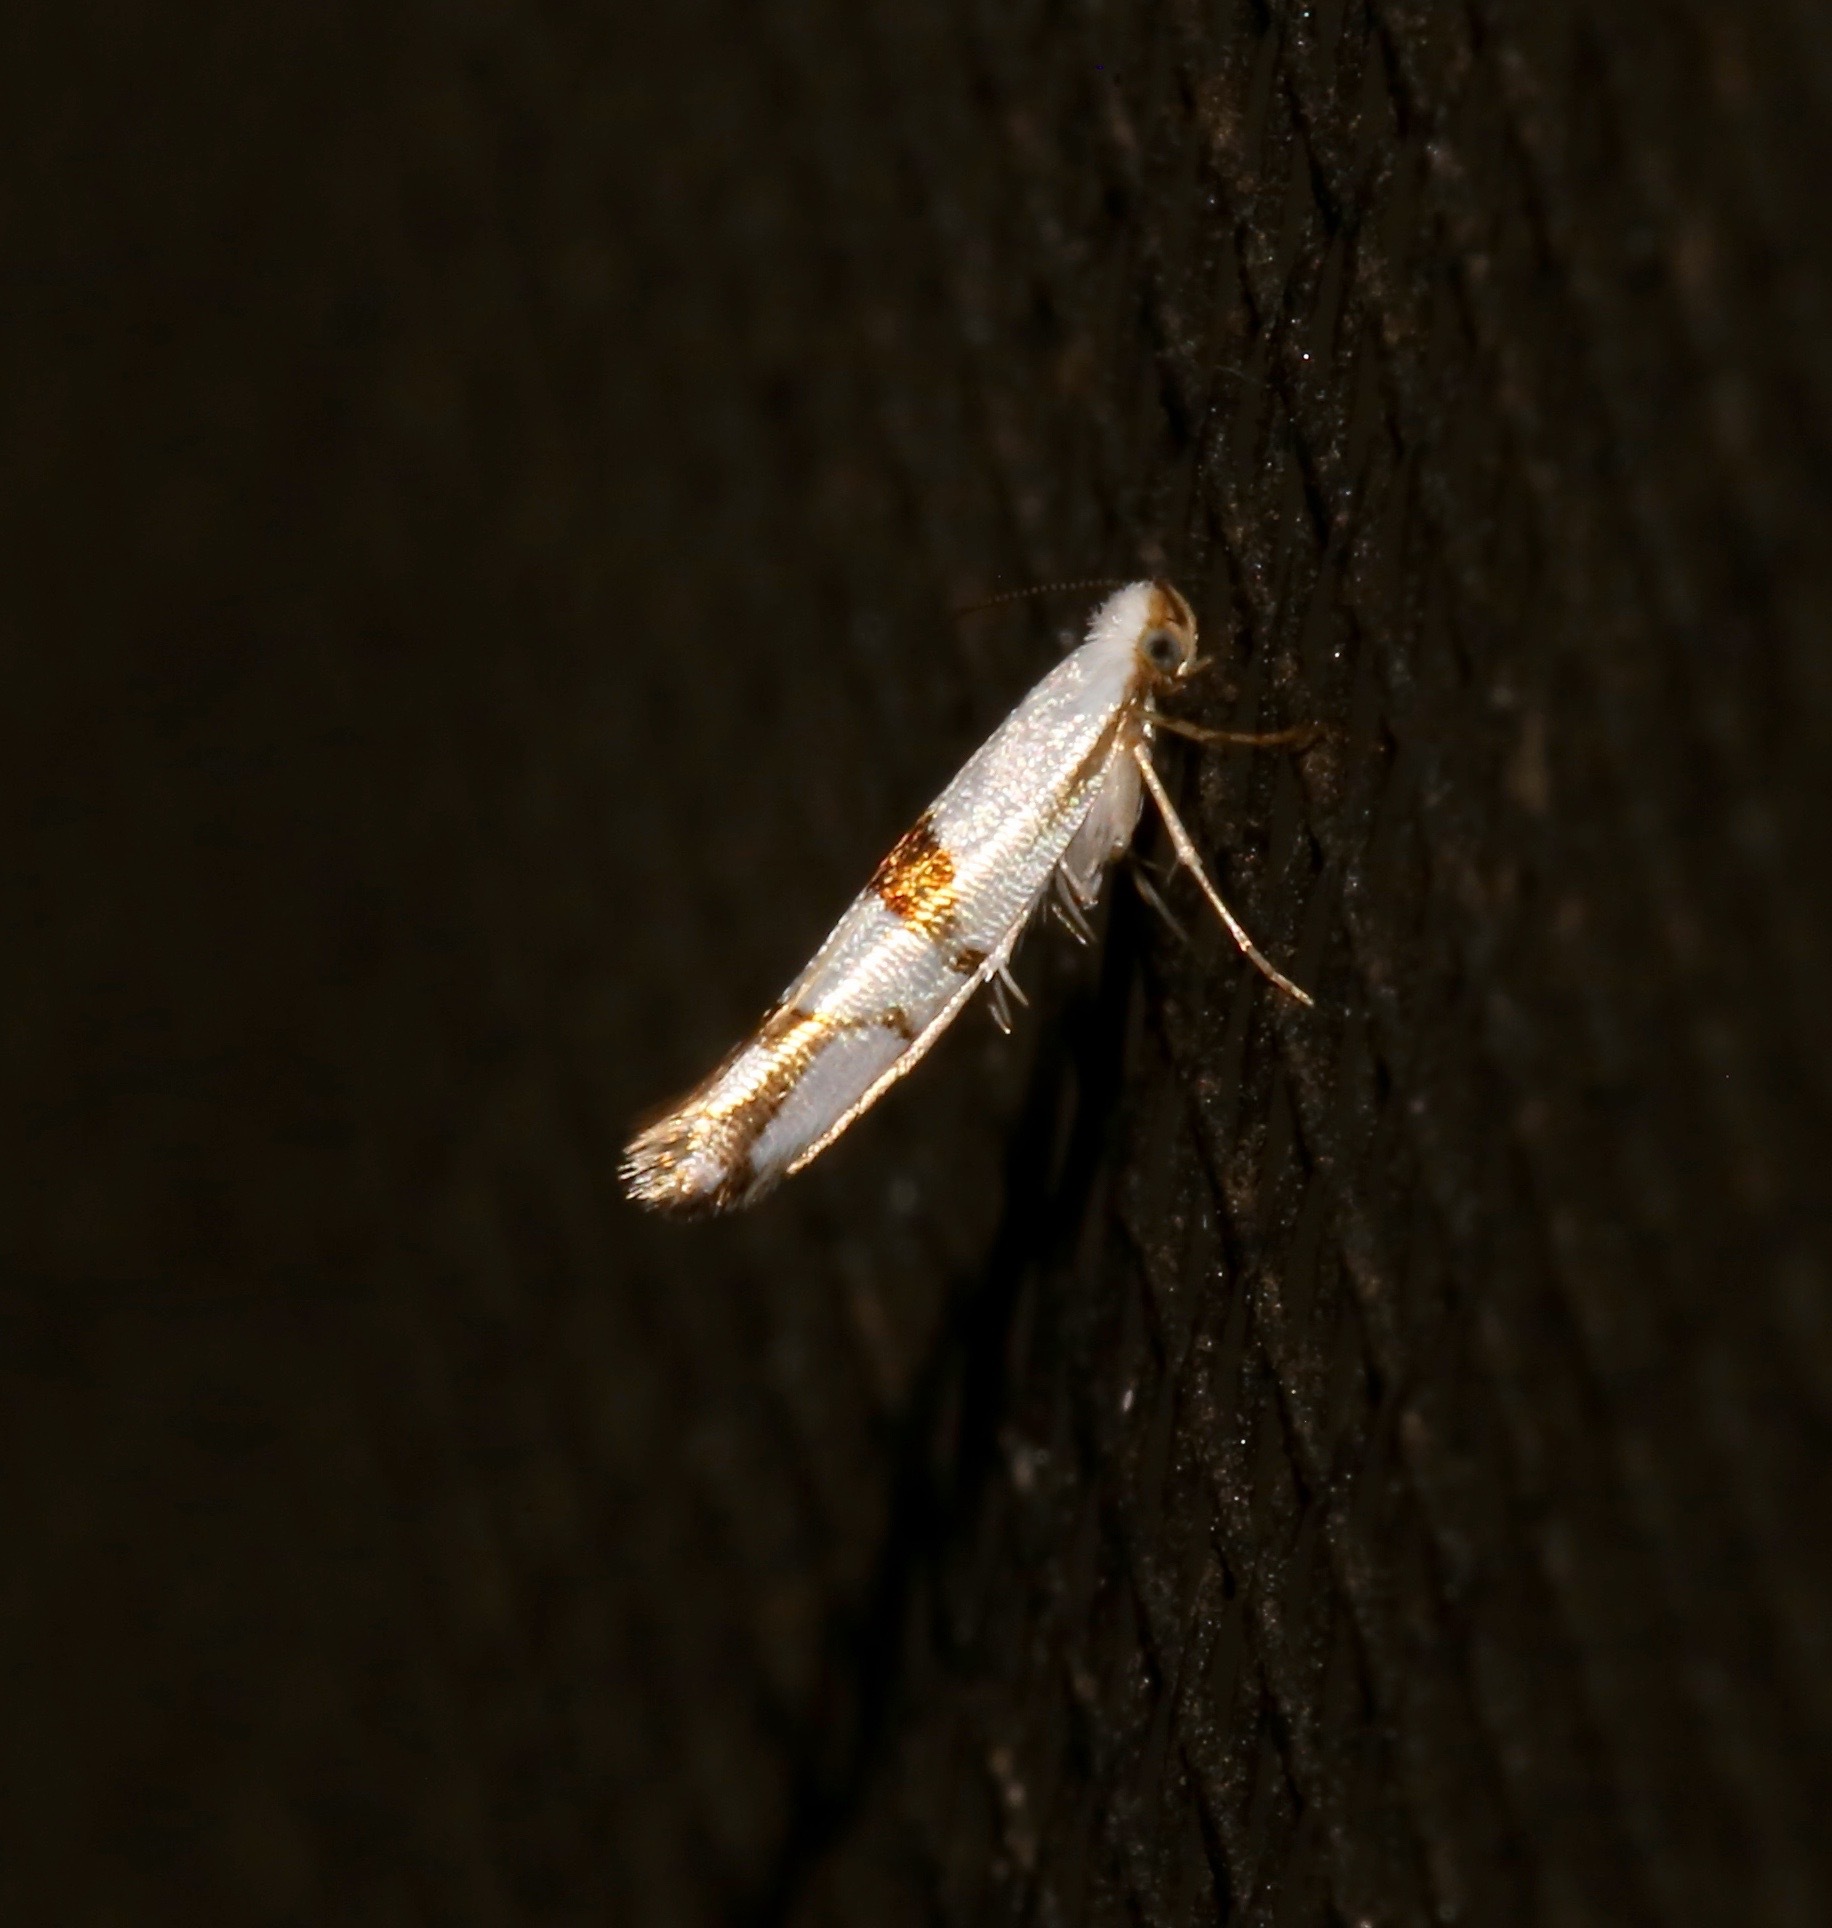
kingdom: Animalia
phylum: Arthropoda
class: Insecta
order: Lepidoptera
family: Argyresthiidae
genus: Argyresthia
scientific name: Argyresthia oreasella
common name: Cherry shoot borer moth
